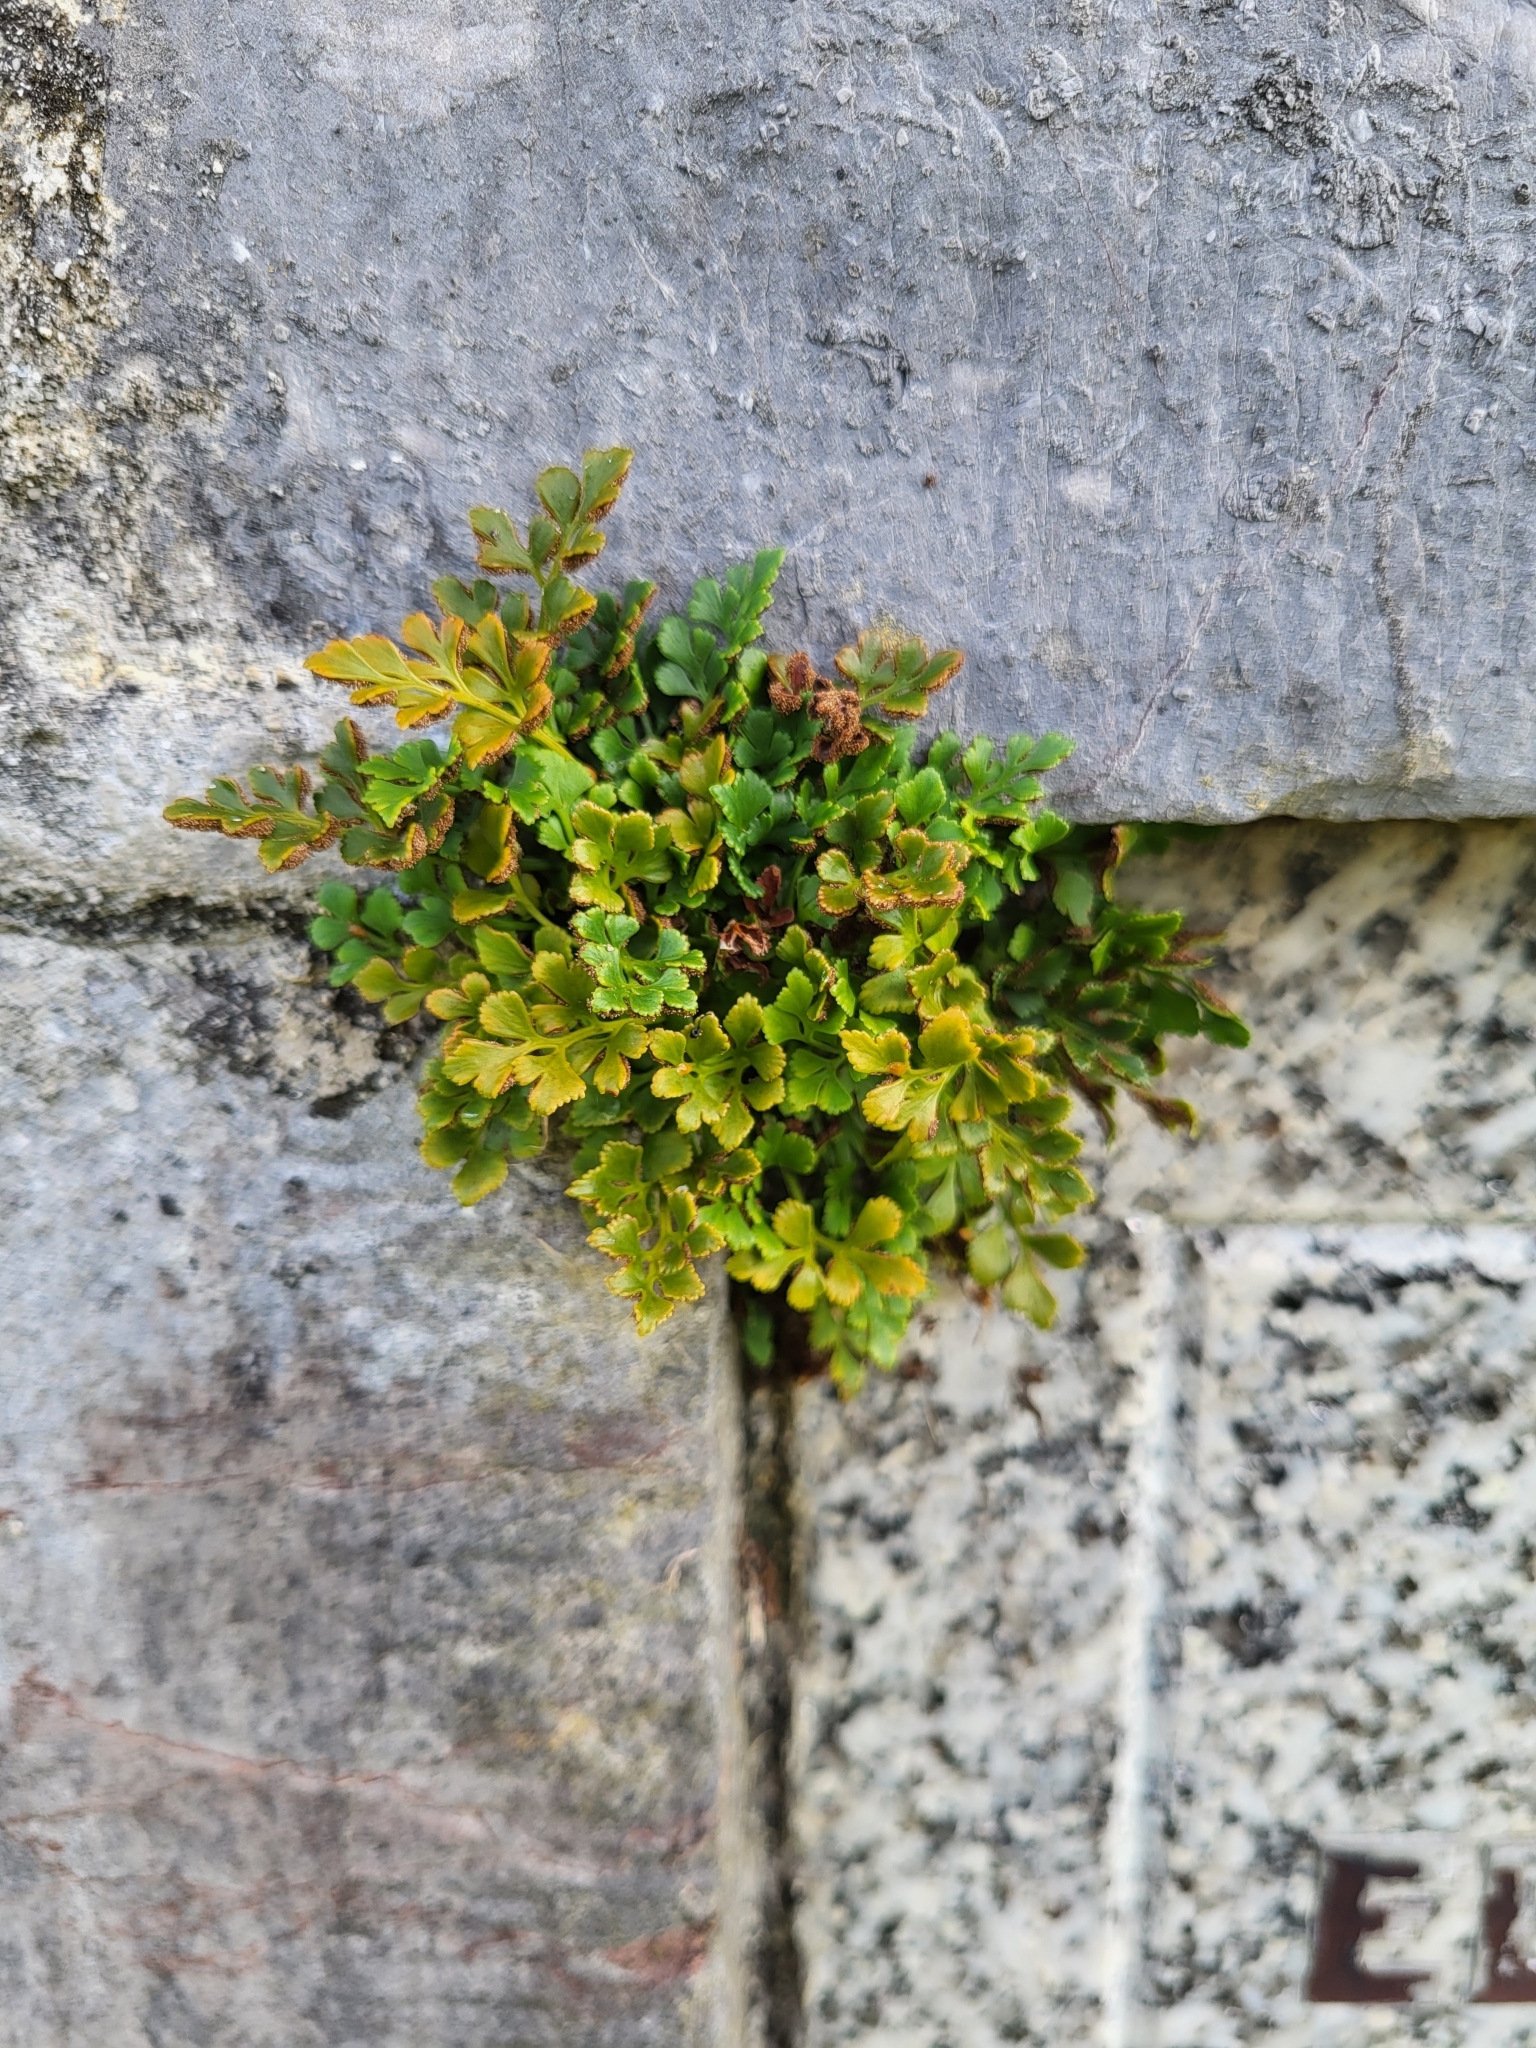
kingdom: Plantae
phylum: Tracheophyta
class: Polypodiopsida
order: Polypodiales
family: Aspleniaceae
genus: Asplenium
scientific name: Asplenium ruta-muraria
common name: Wall-rue
